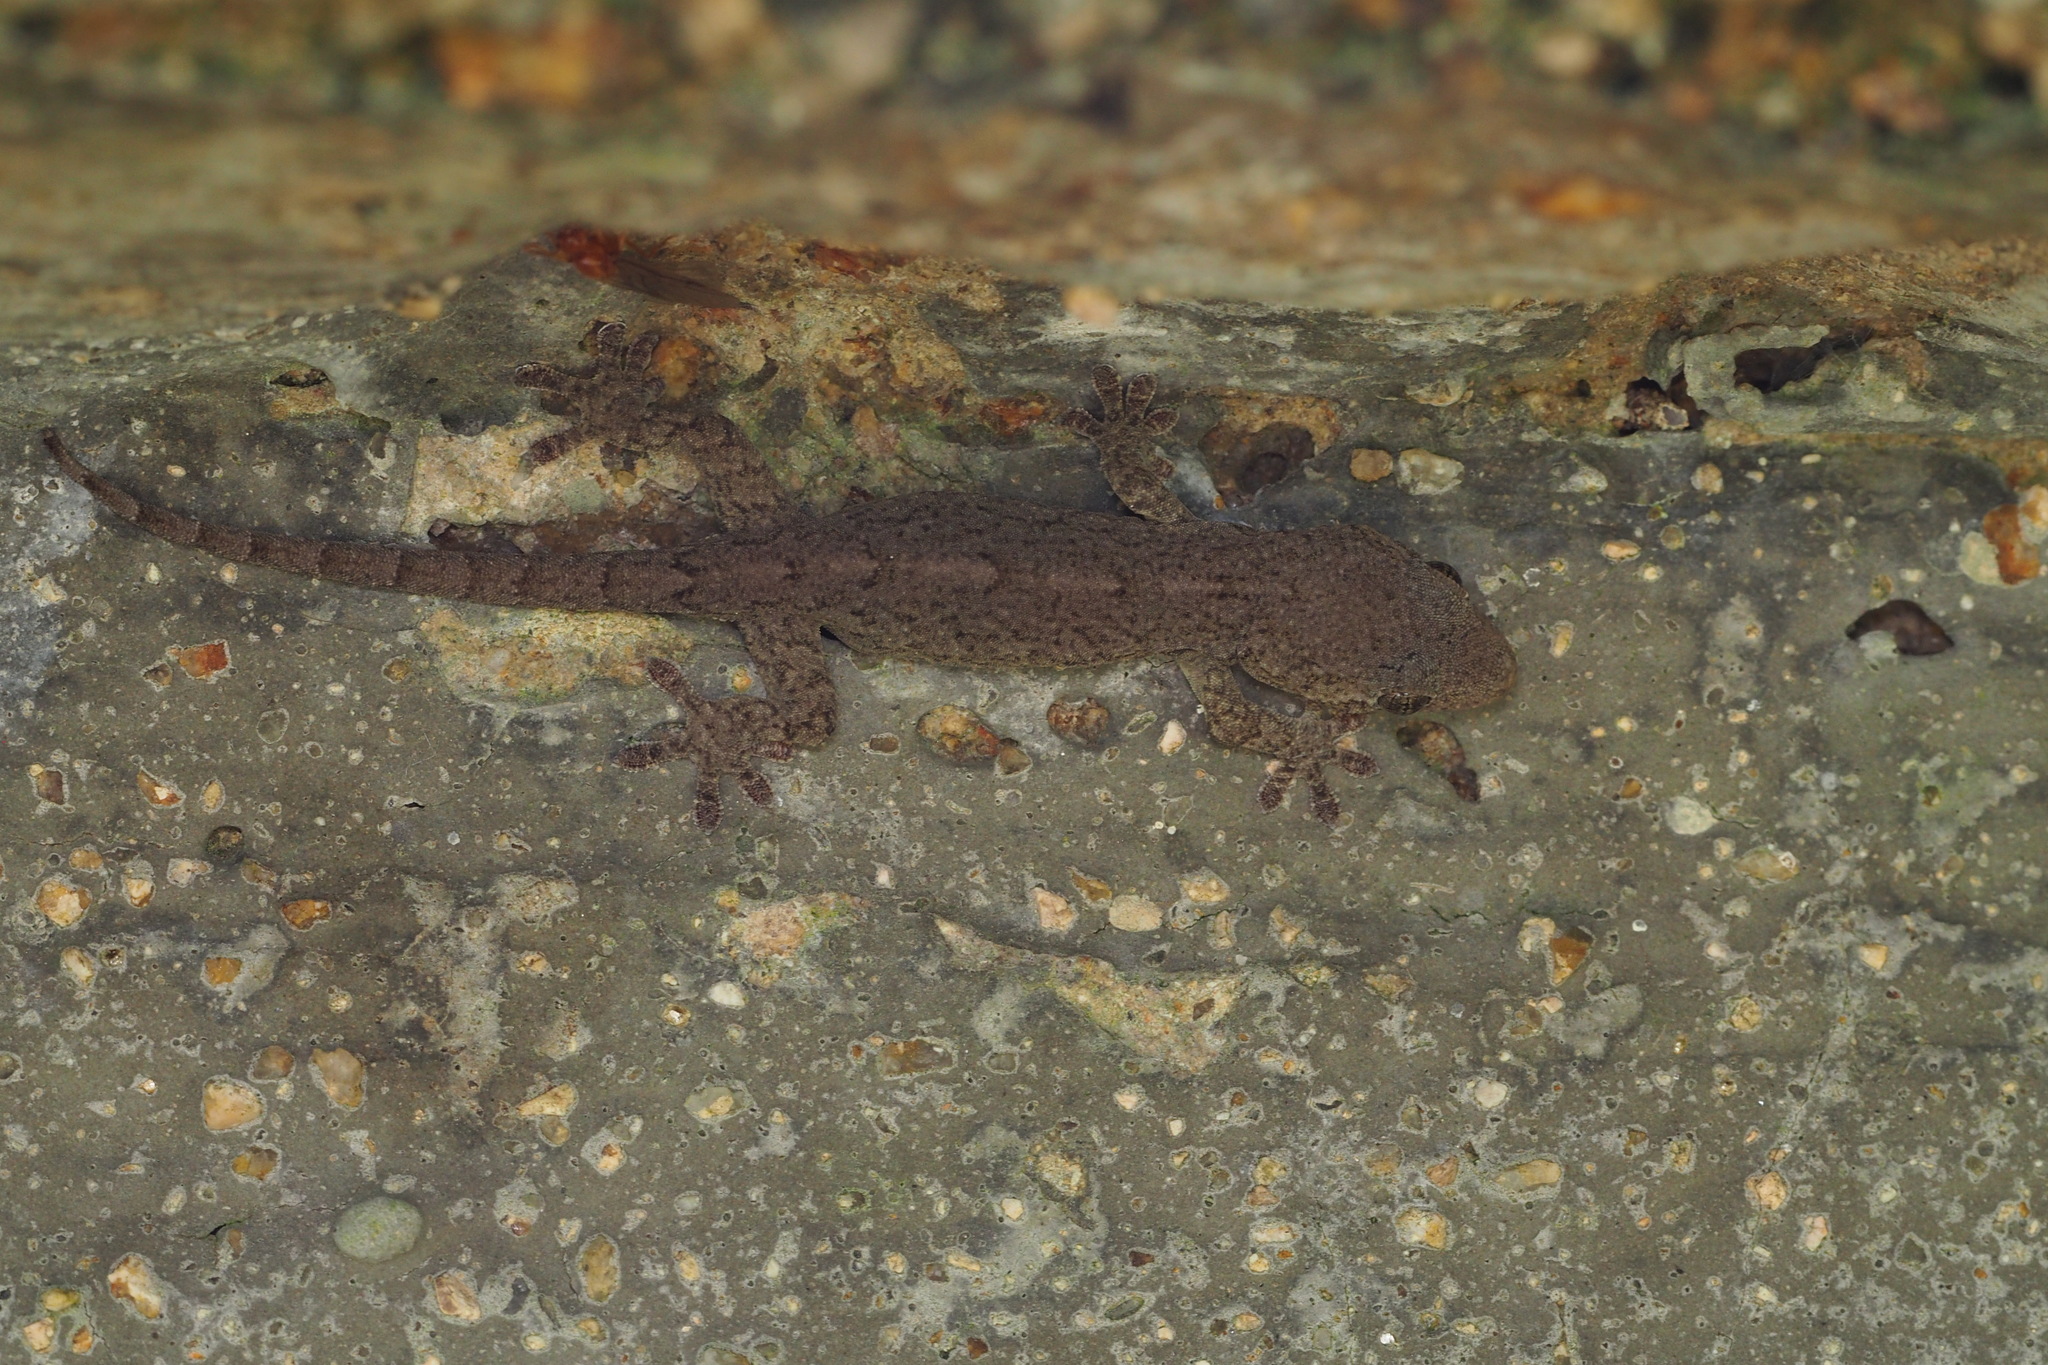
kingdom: Animalia
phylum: Chordata
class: Squamata
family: Gekkonidae
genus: Gekko
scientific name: Gekko japonicus
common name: Schlegel's japanese gecko
